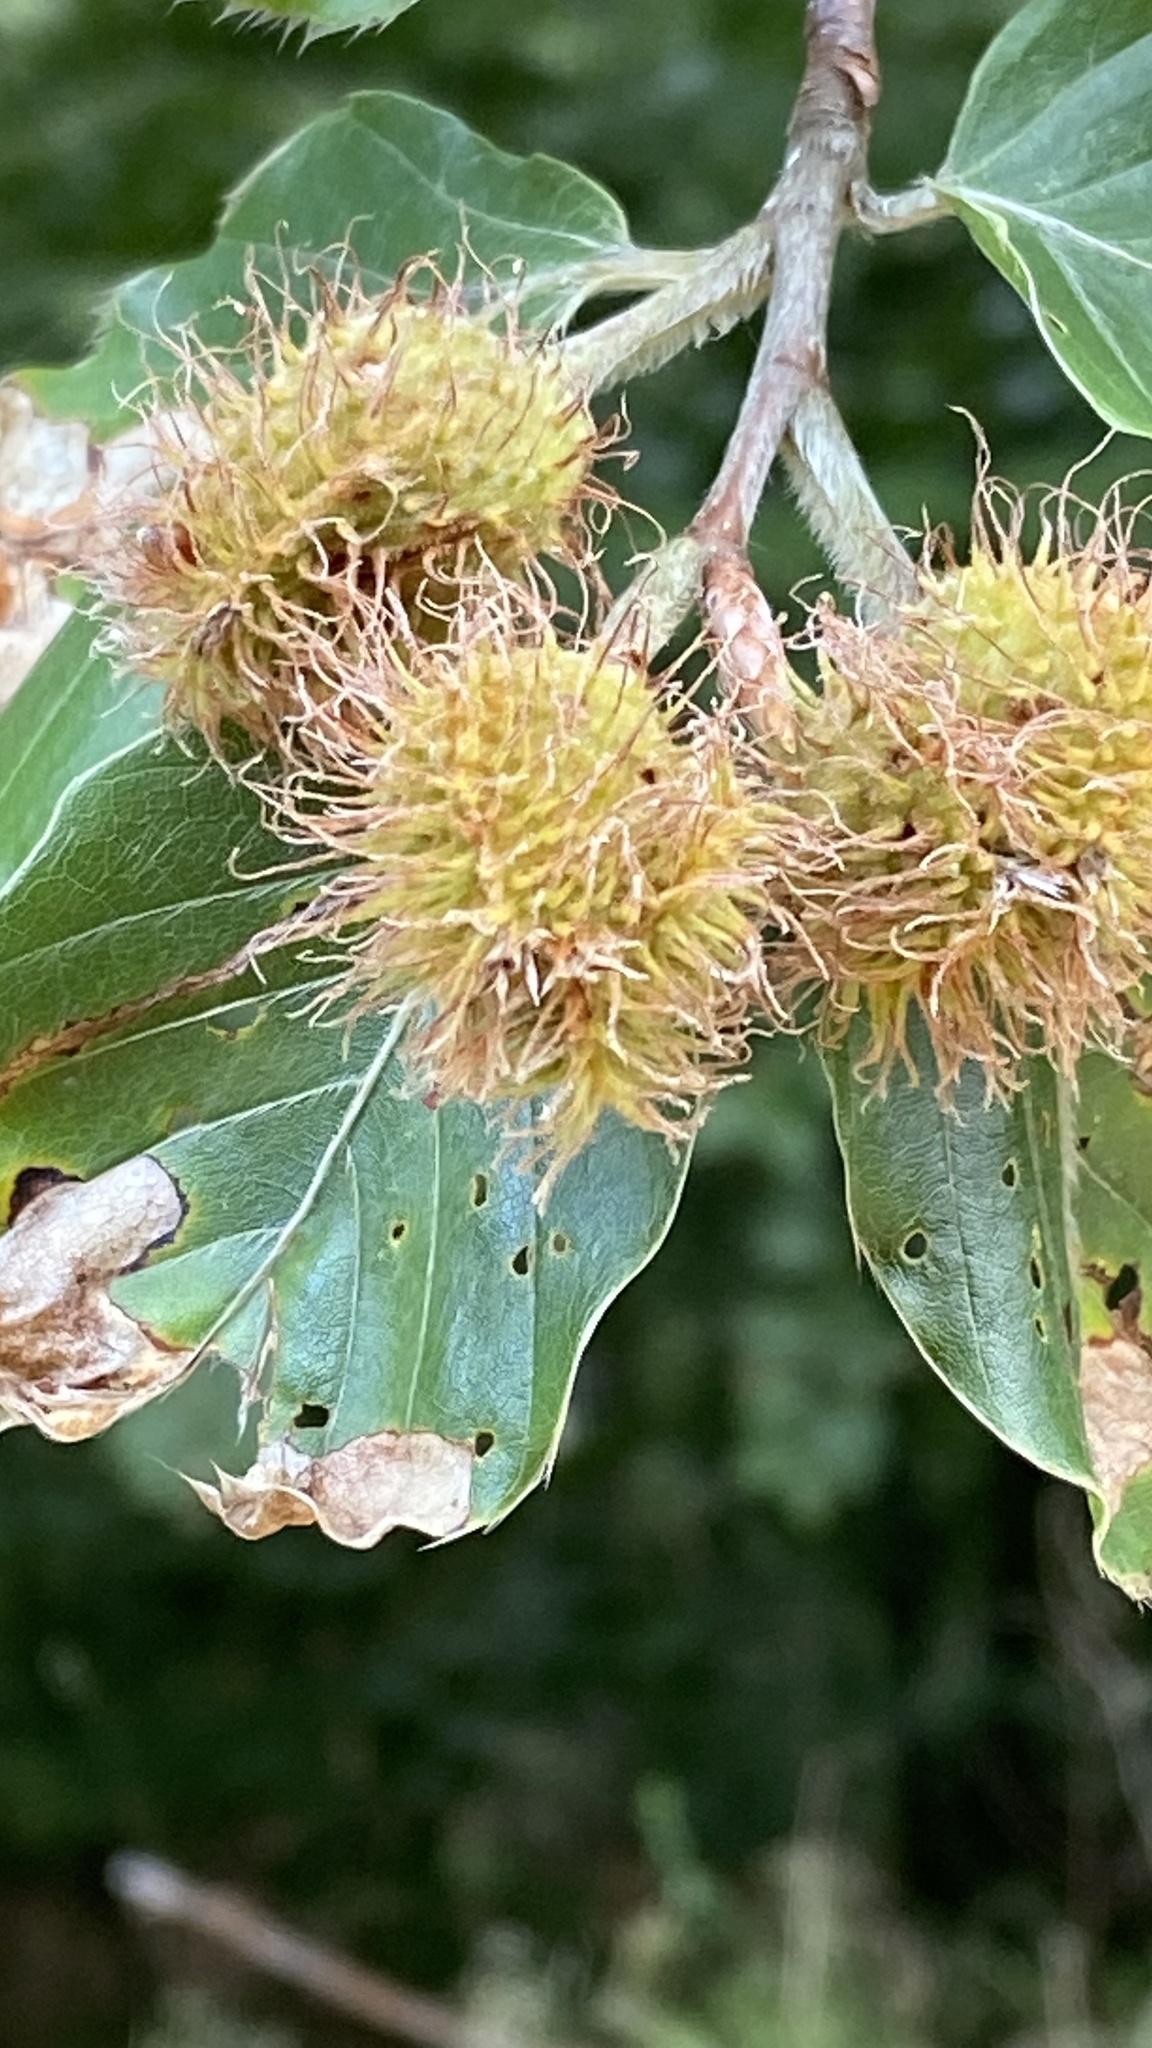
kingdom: Plantae
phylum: Tracheophyta
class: Magnoliopsida
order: Fagales
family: Fagaceae
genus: Fagus
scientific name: Fagus sylvatica
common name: Beech
